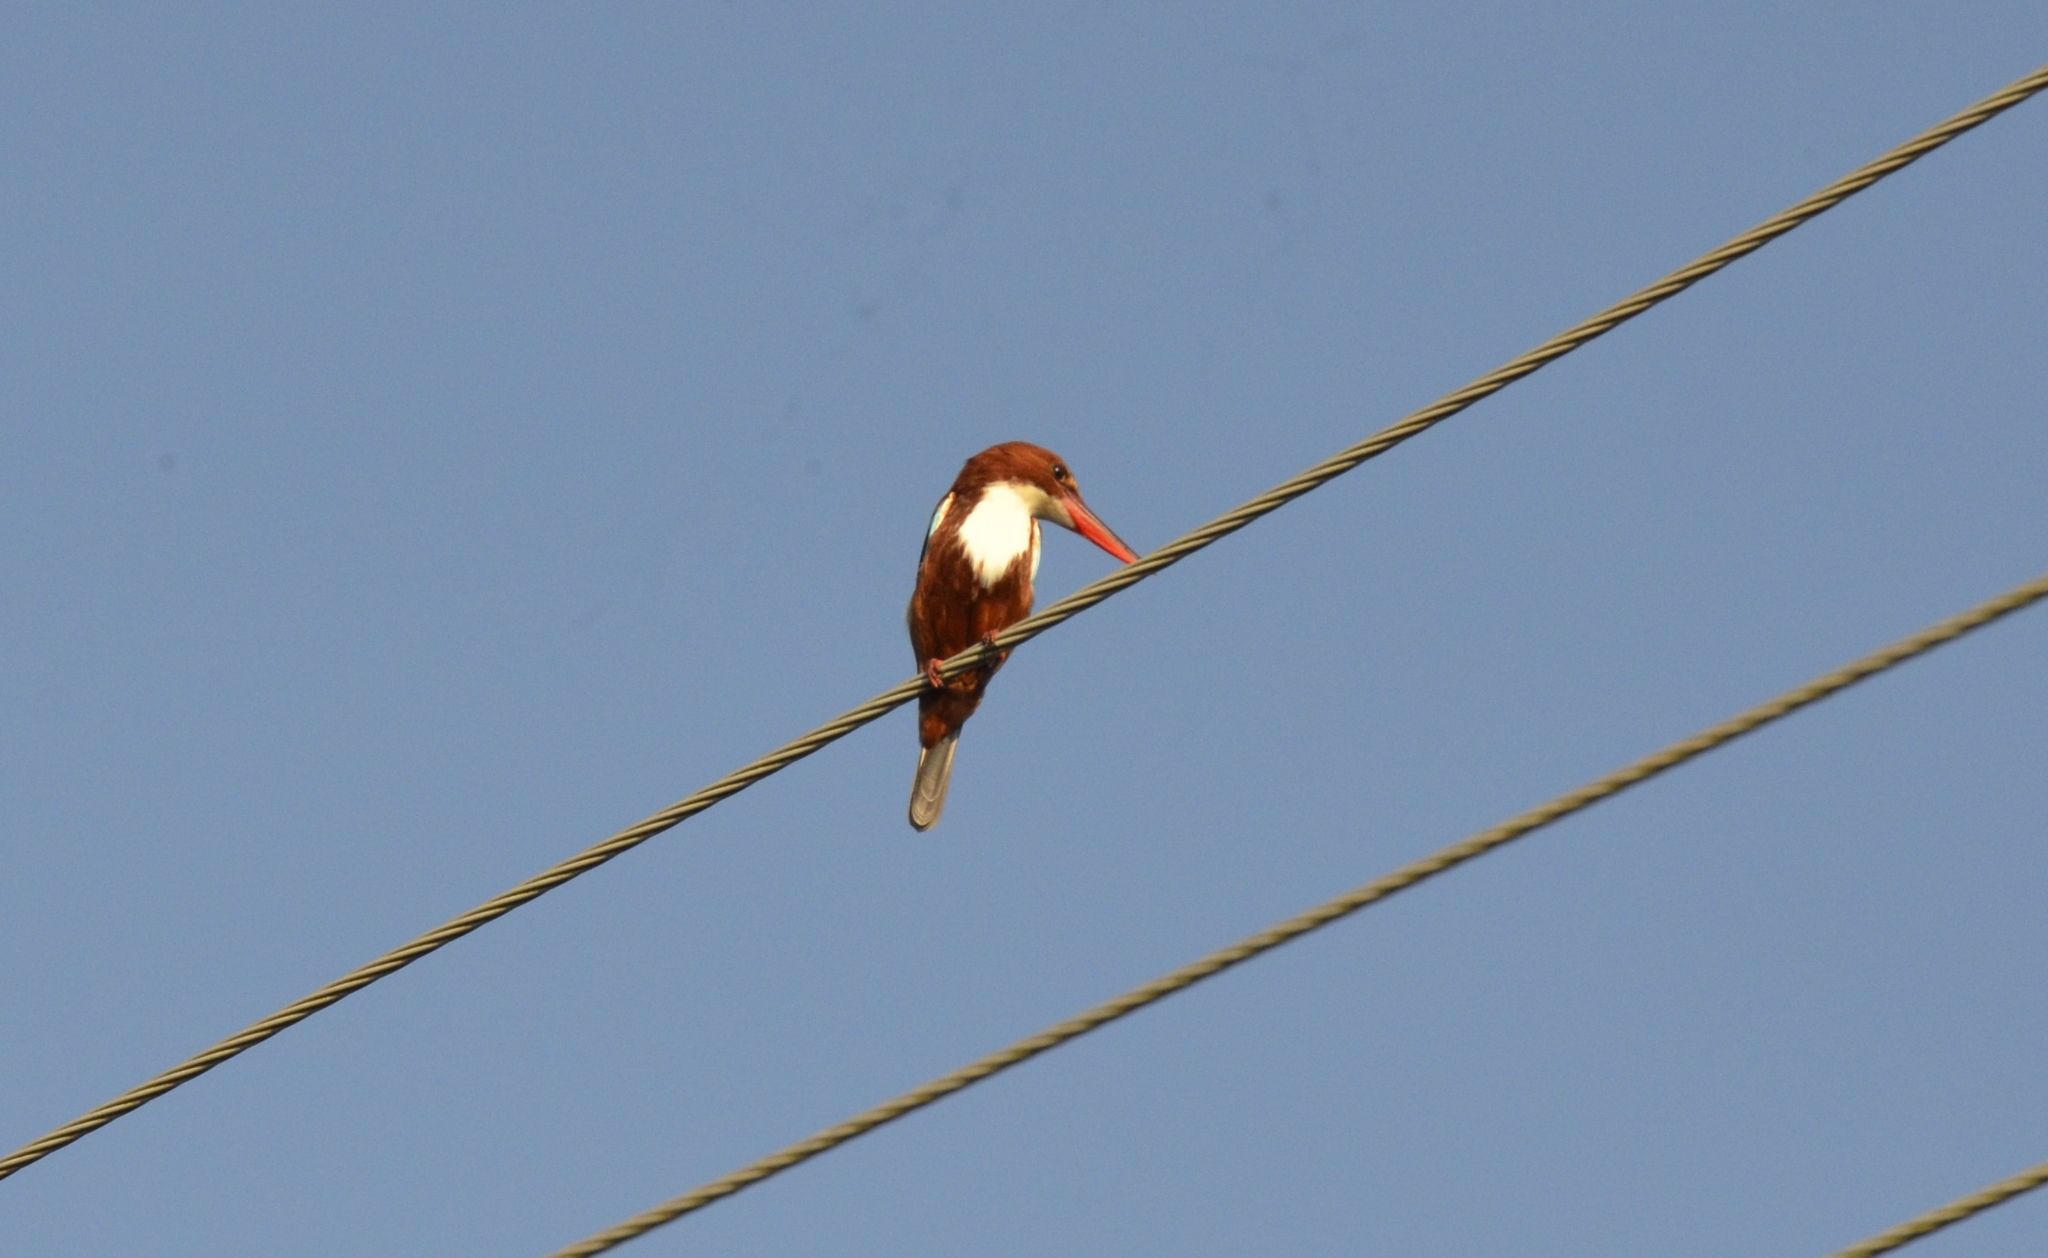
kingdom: Animalia
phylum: Chordata
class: Aves
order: Coraciiformes
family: Alcedinidae
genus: Halcyon
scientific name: Halcyon smyrnensis
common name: White-throated kingfisher
